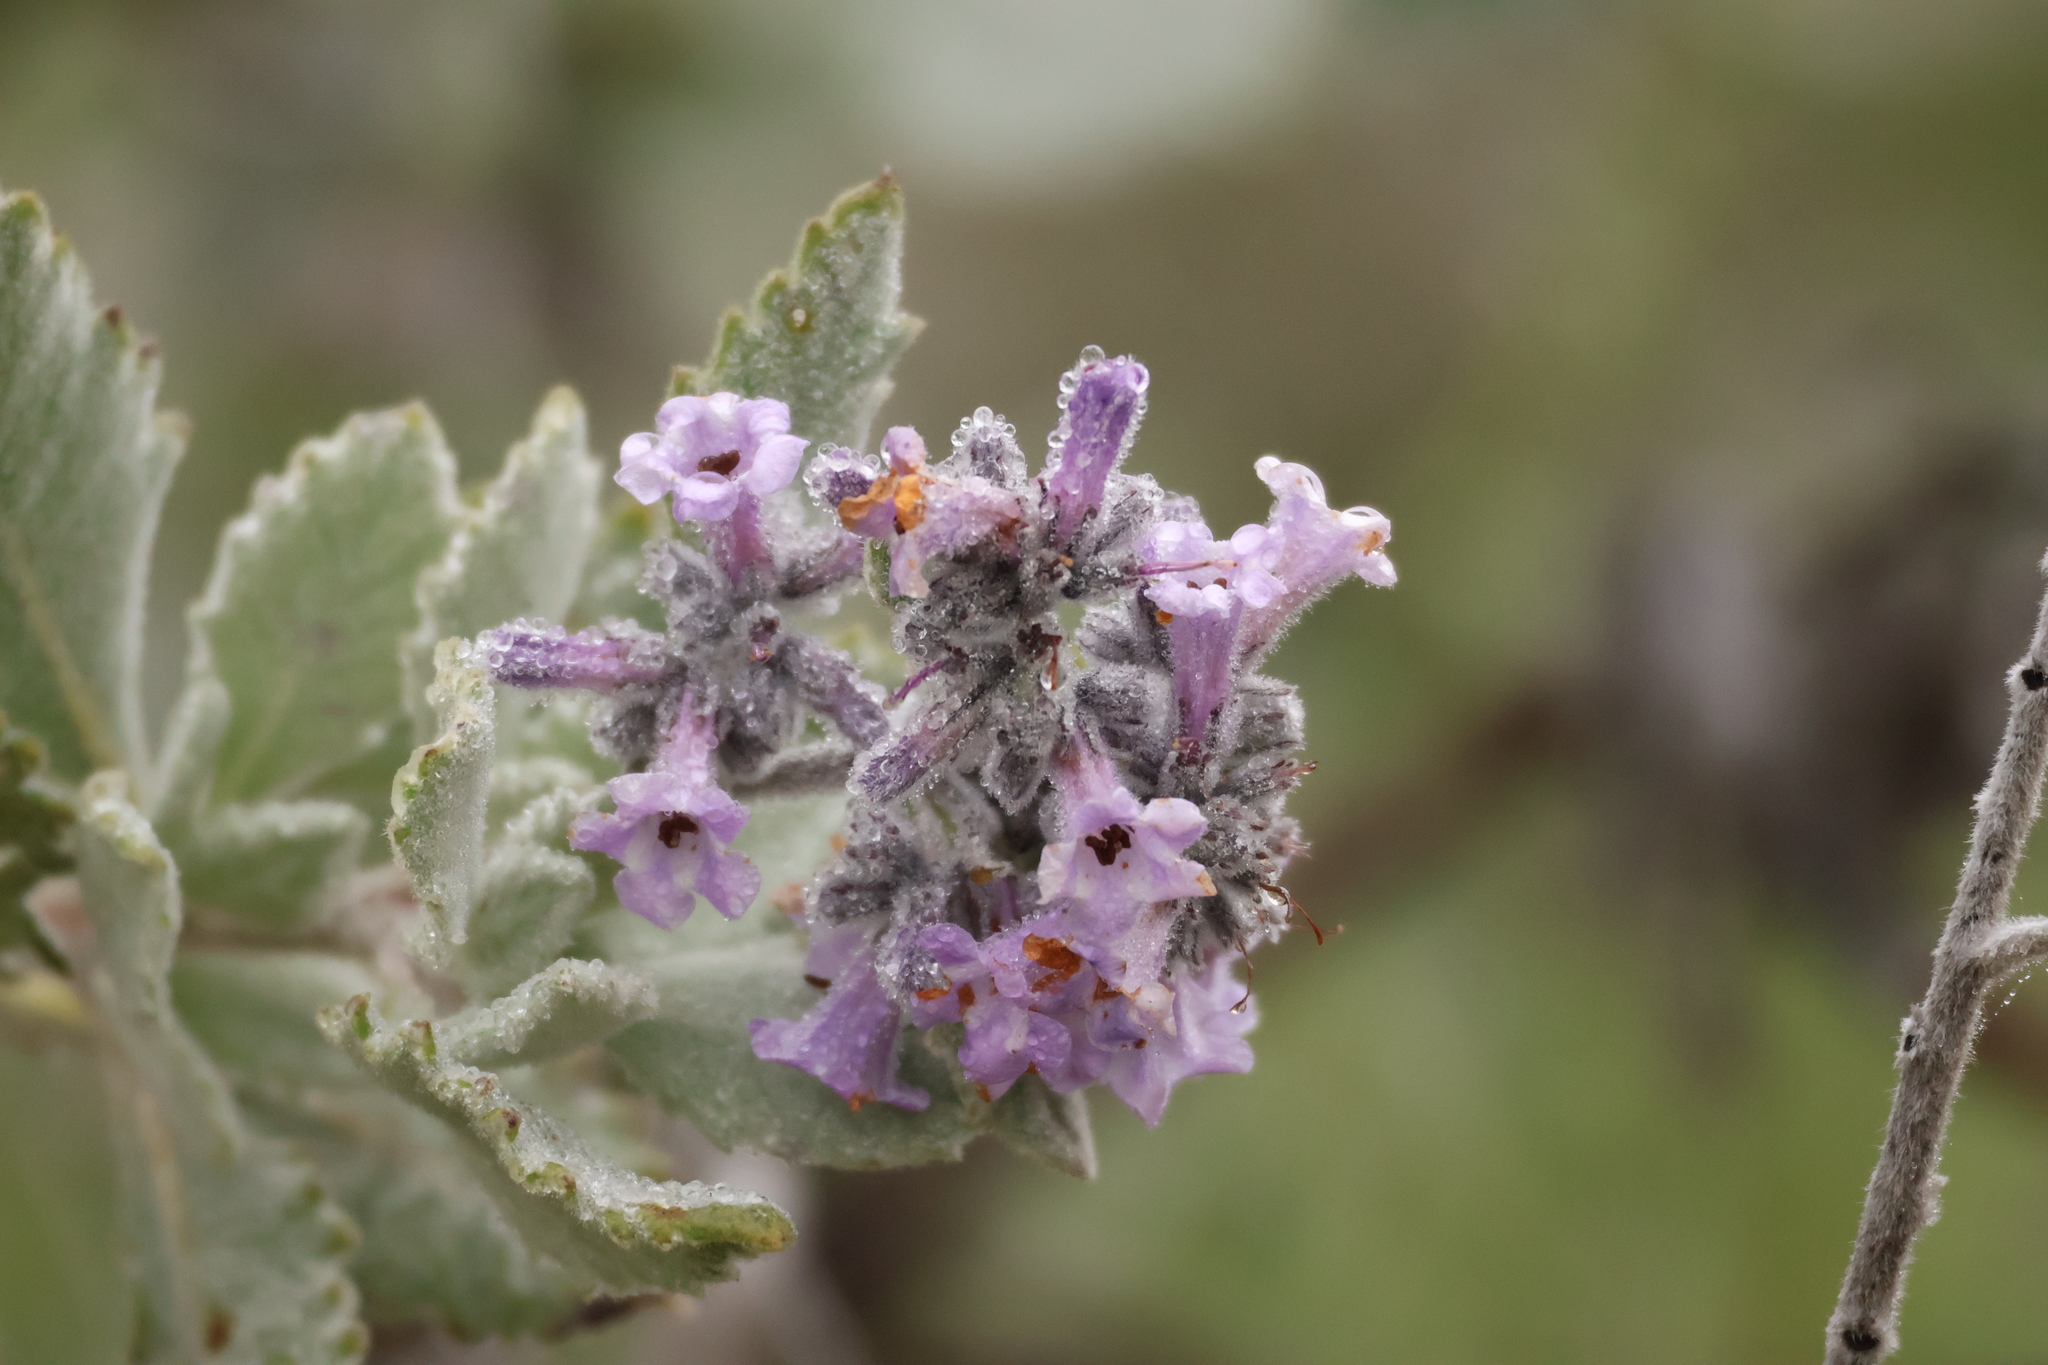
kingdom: Plantae
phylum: Tracheophyta
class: Magnoliopsida
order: Boraginales
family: Namaceae
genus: Eriodictyon
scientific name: Eriodictyon crassifolium
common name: Thick-leaf yerba-santa
